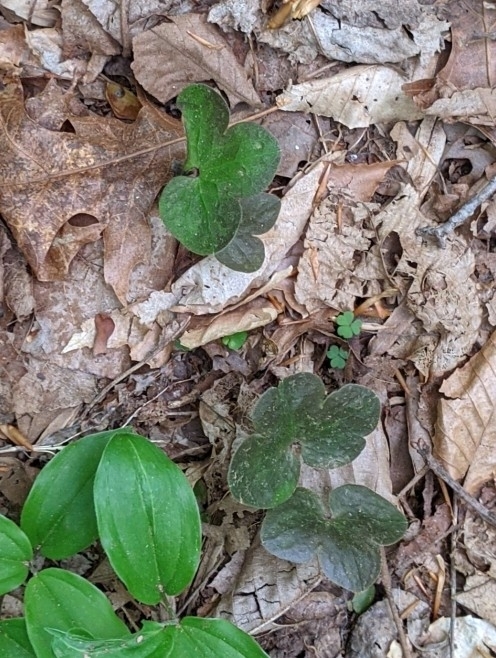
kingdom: Plantae
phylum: Tracheophyta
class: Magnoliopsida
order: Ranunculales
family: Ranunculaceae
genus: Hepatica
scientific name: Hepatica americana
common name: American hepatica
